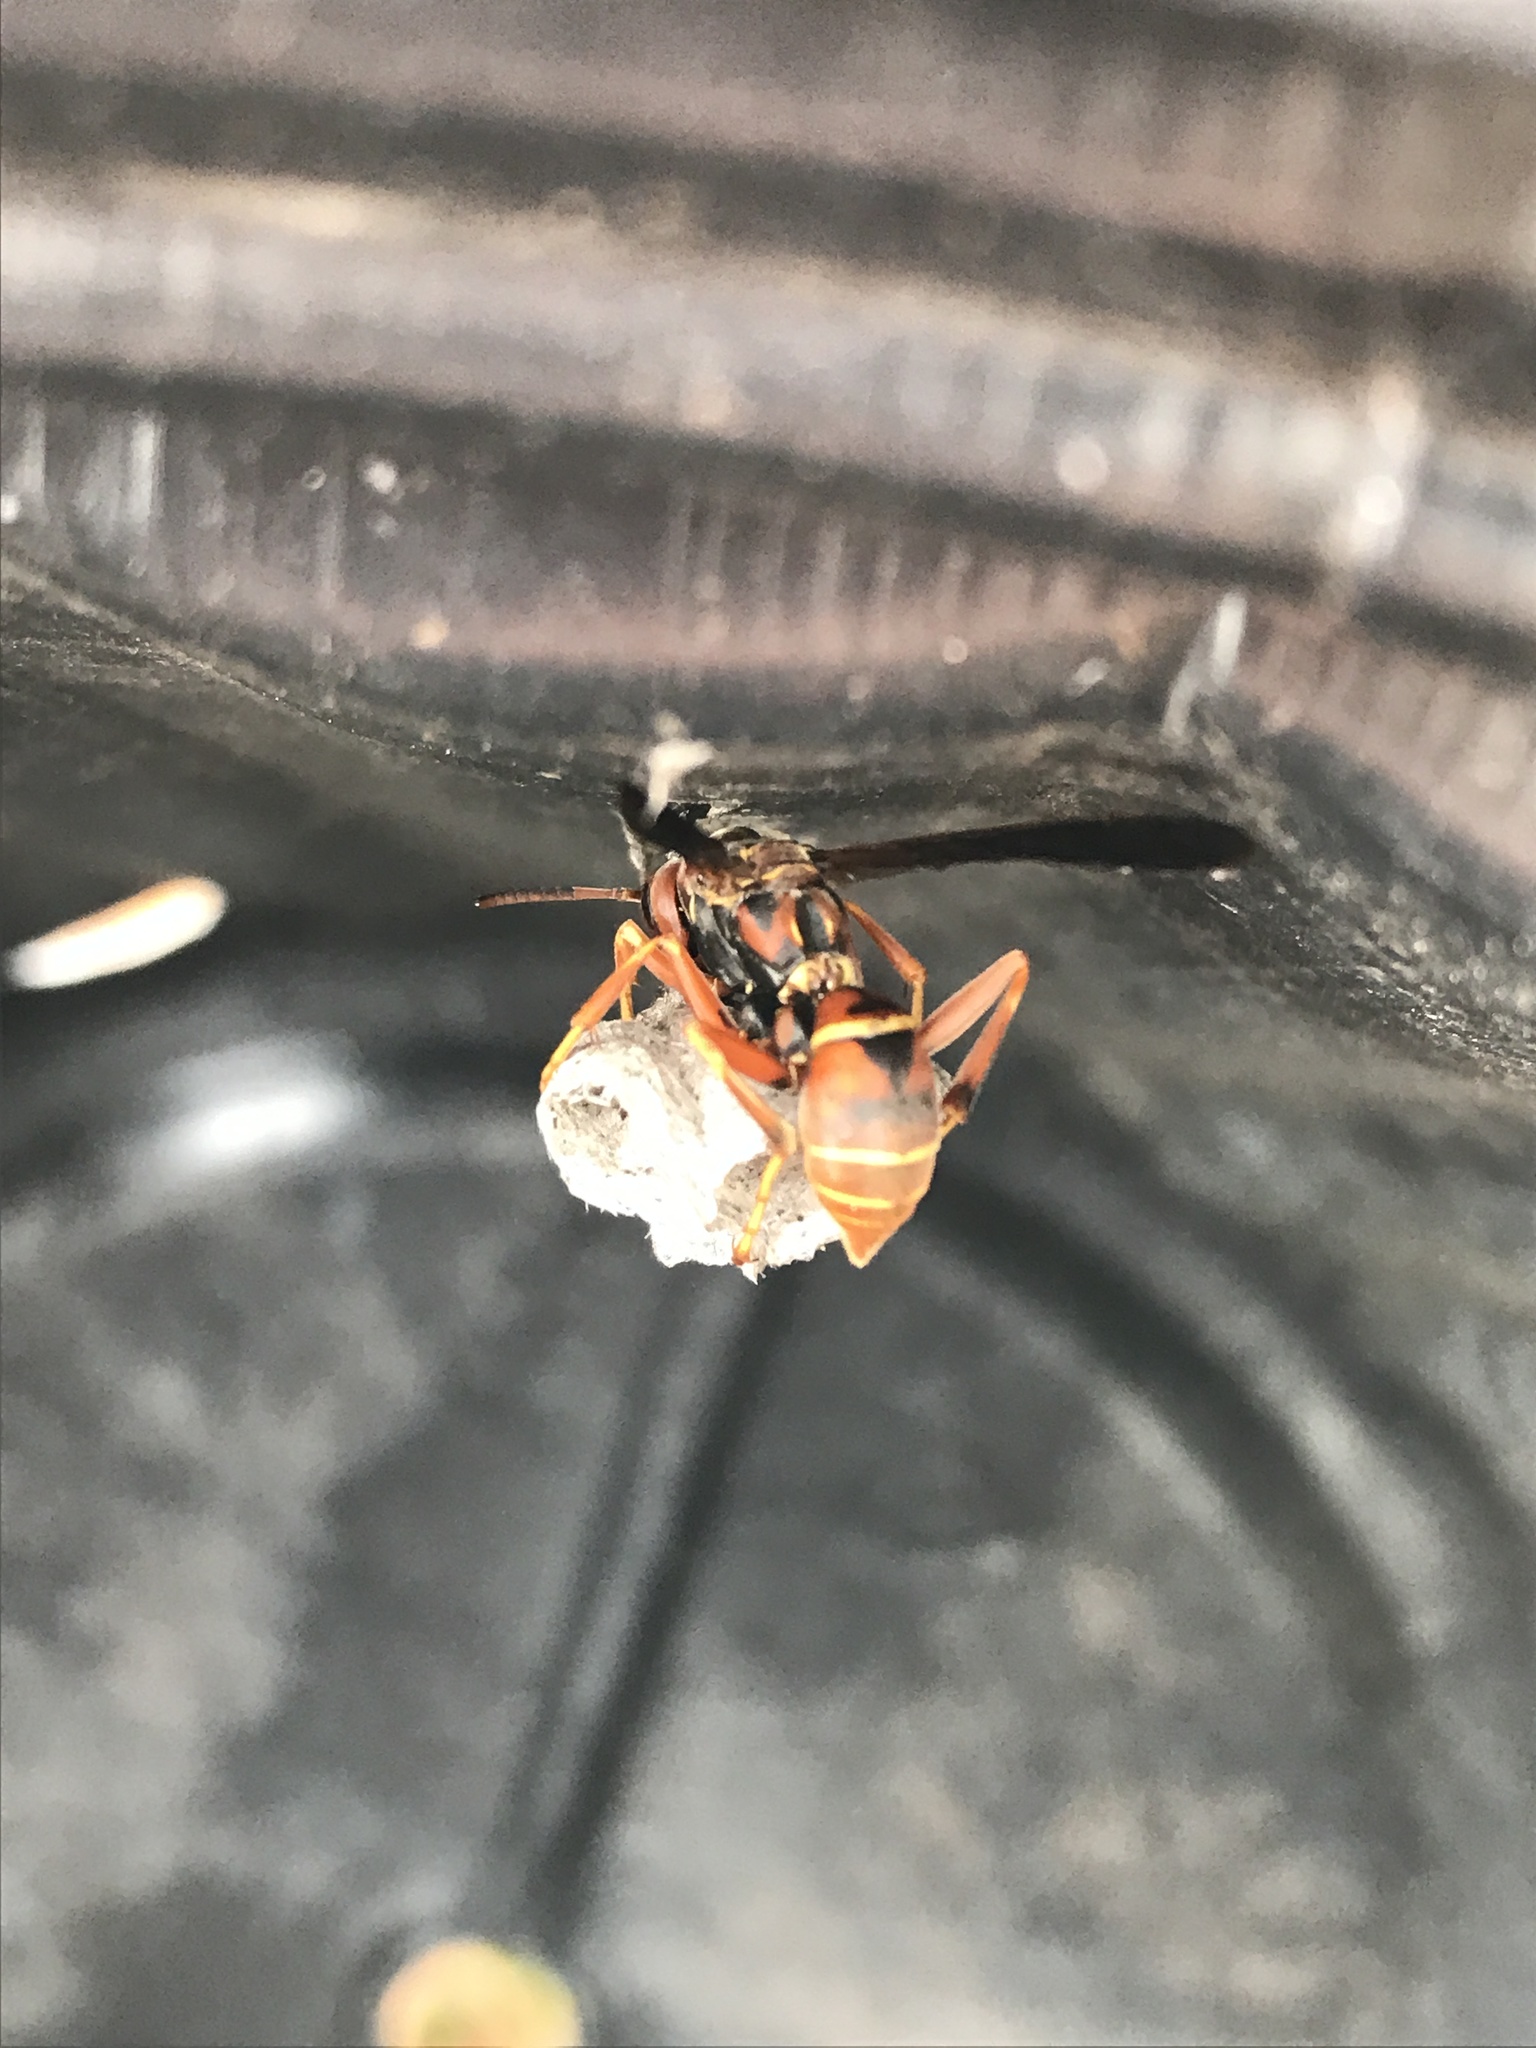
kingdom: Animalia
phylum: Arthropoda
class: Insecta
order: Hymenoptera
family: Eumenidae
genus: Polistes
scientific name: Polistes fuscatus
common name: Dark paper wasp
